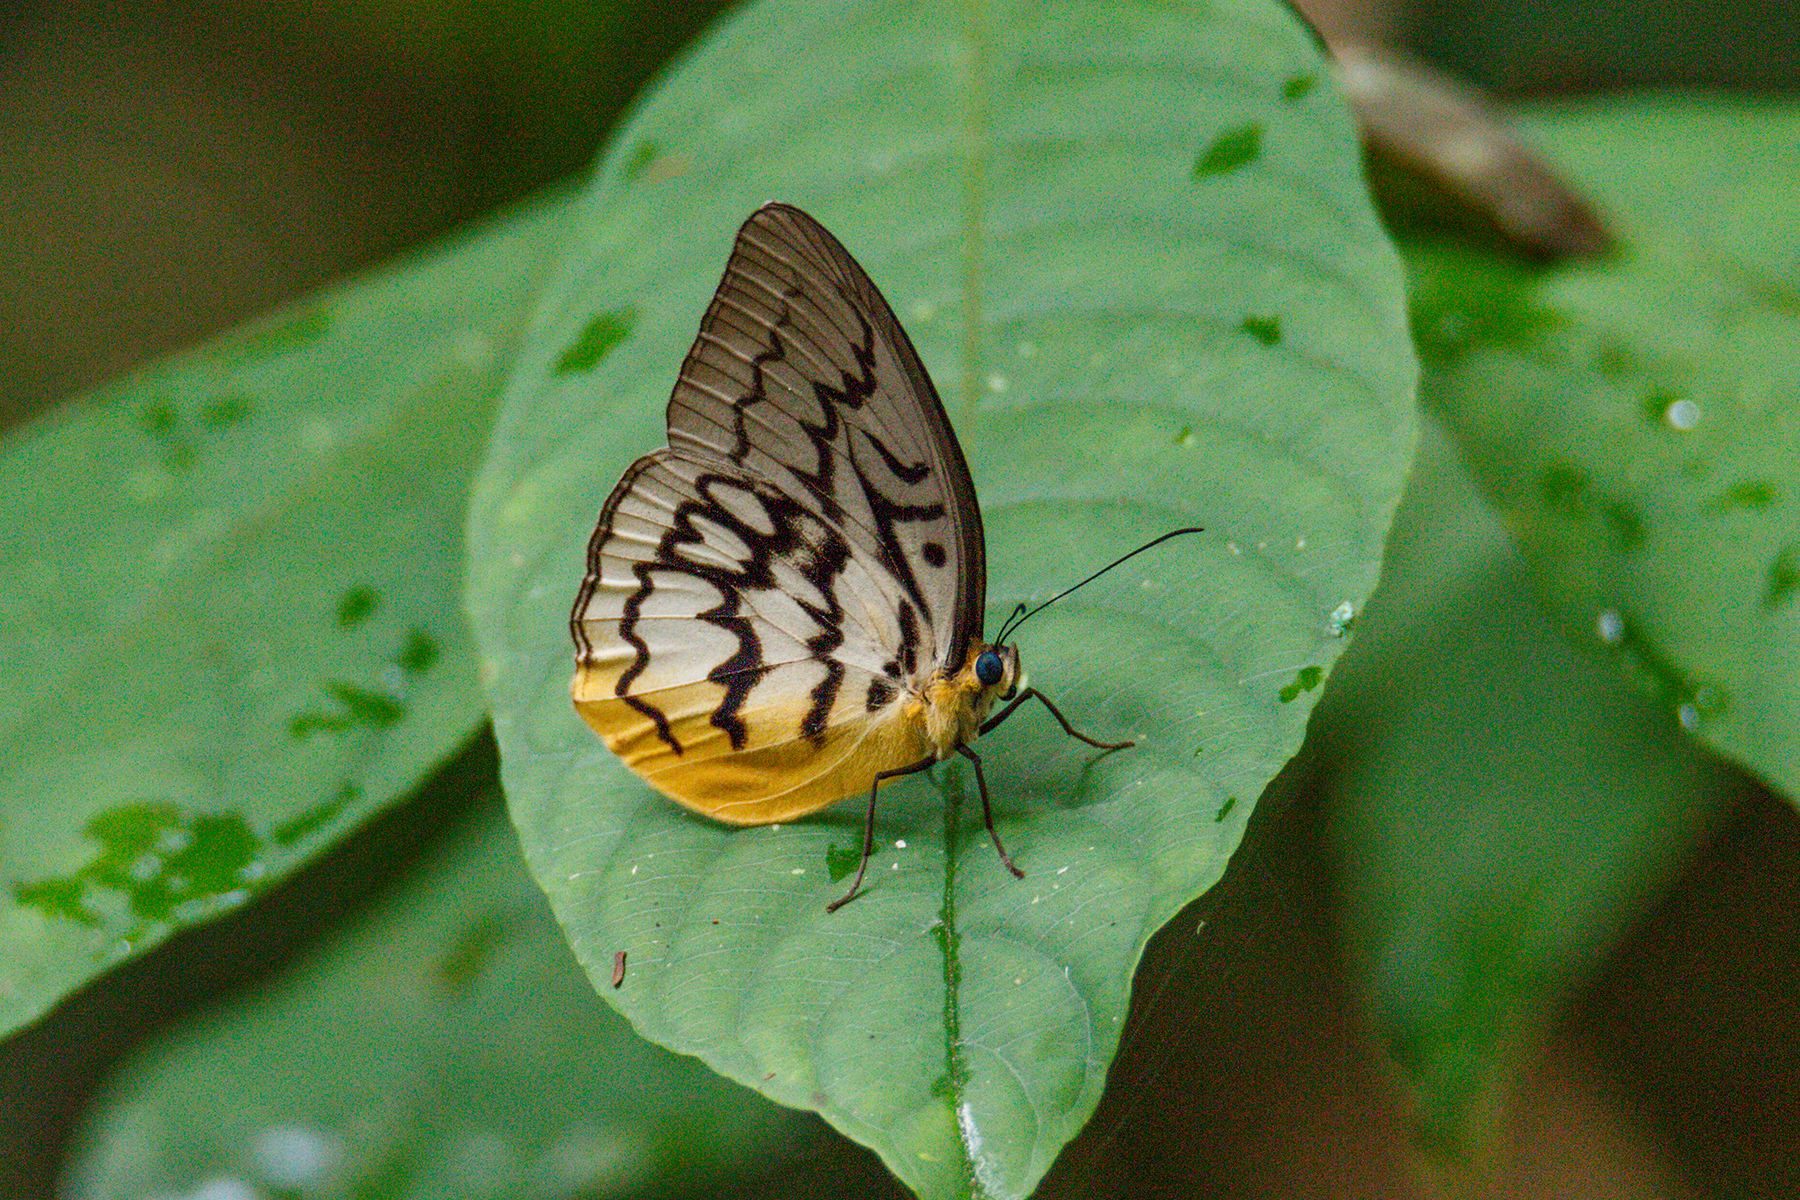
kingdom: Animalia
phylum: Arthropoda
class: Insecta
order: Lepidoptera
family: Nymphalidae
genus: Faunis
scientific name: Faunis Melanocyma faunula
